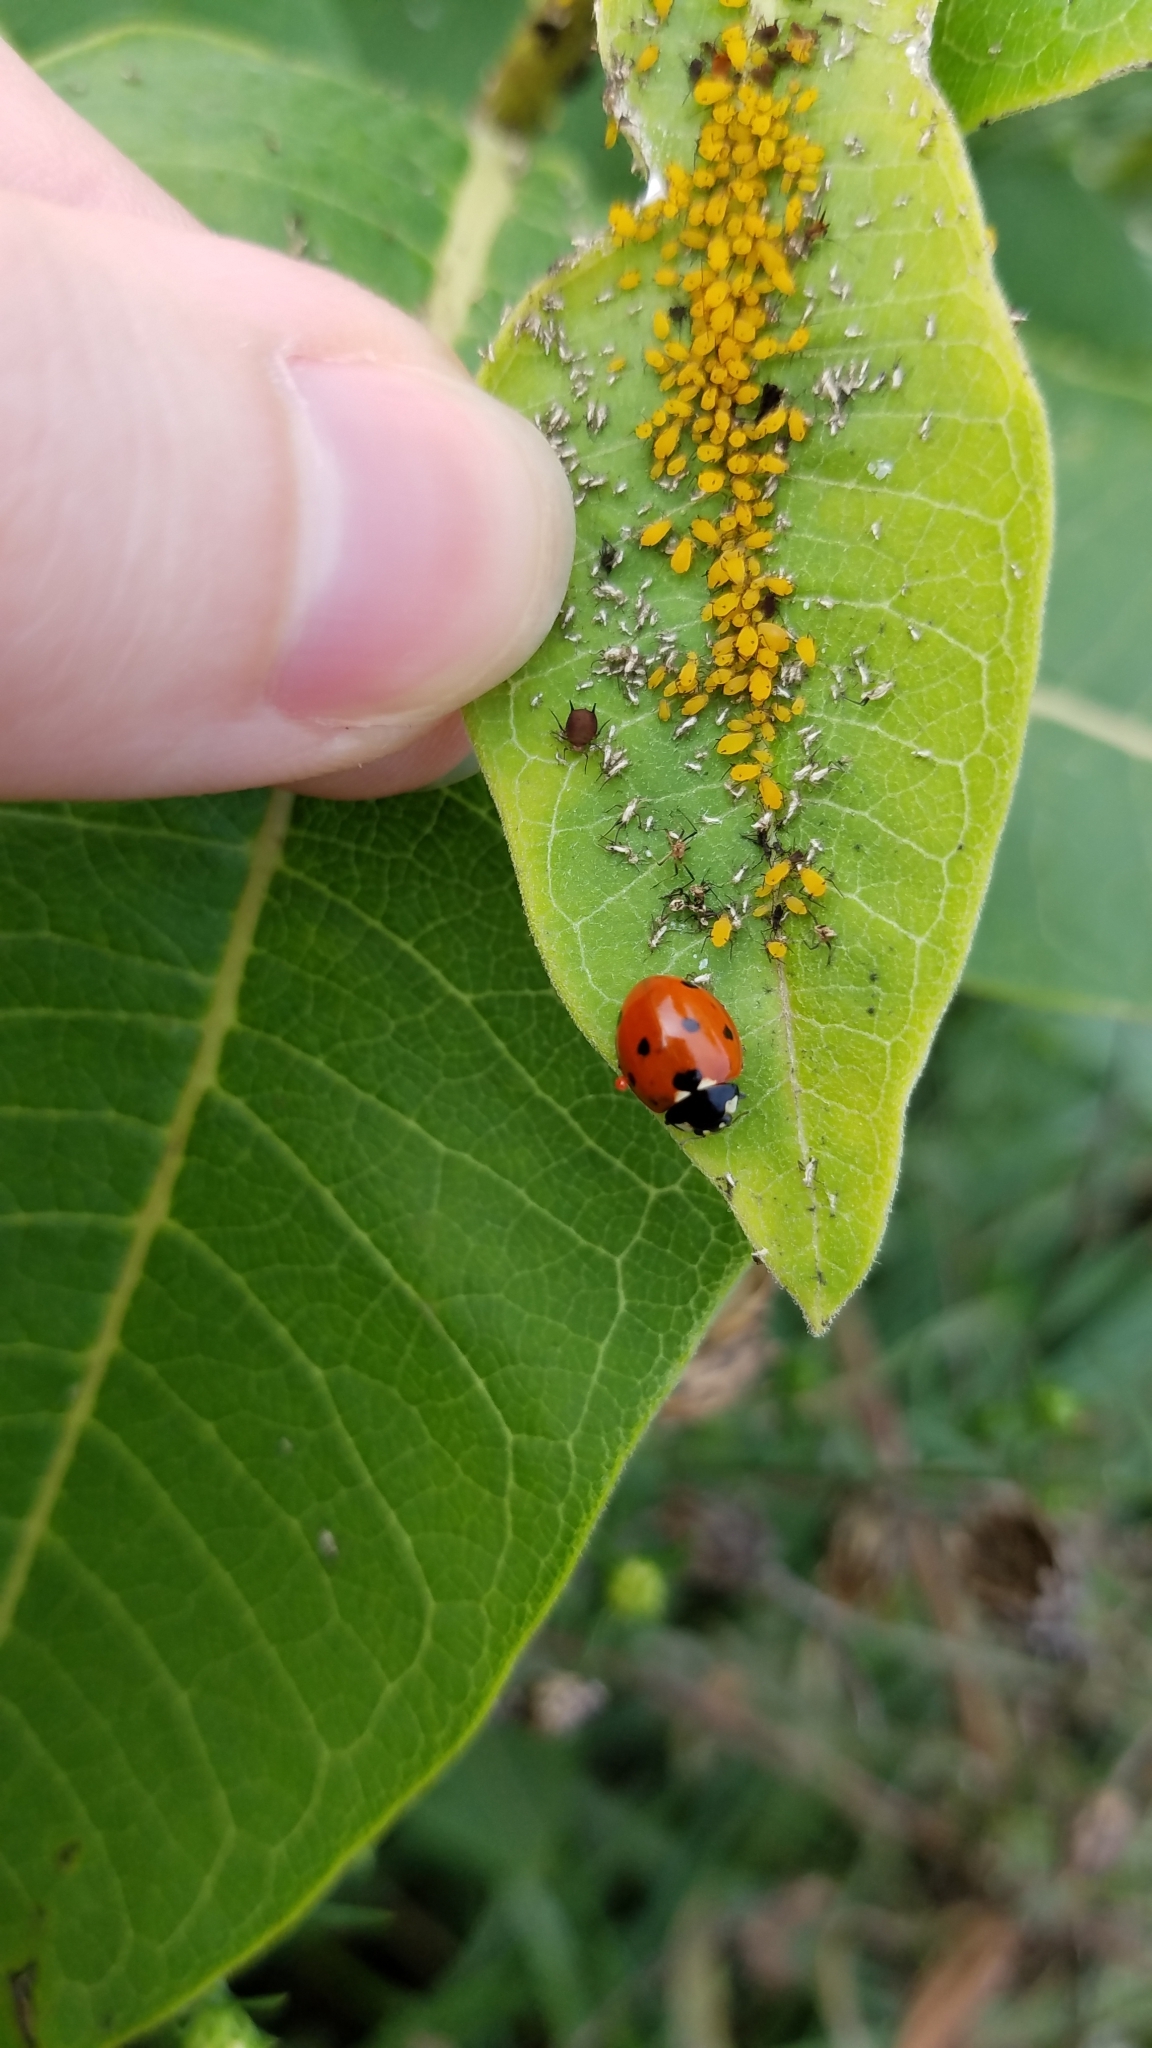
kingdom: Animalia
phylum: Arthropoda
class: Insecta
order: Coleoptera
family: Coccinellidae
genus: Coccinella
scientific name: Coccinella septempunctata
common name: Sevenspotted lady beetle
